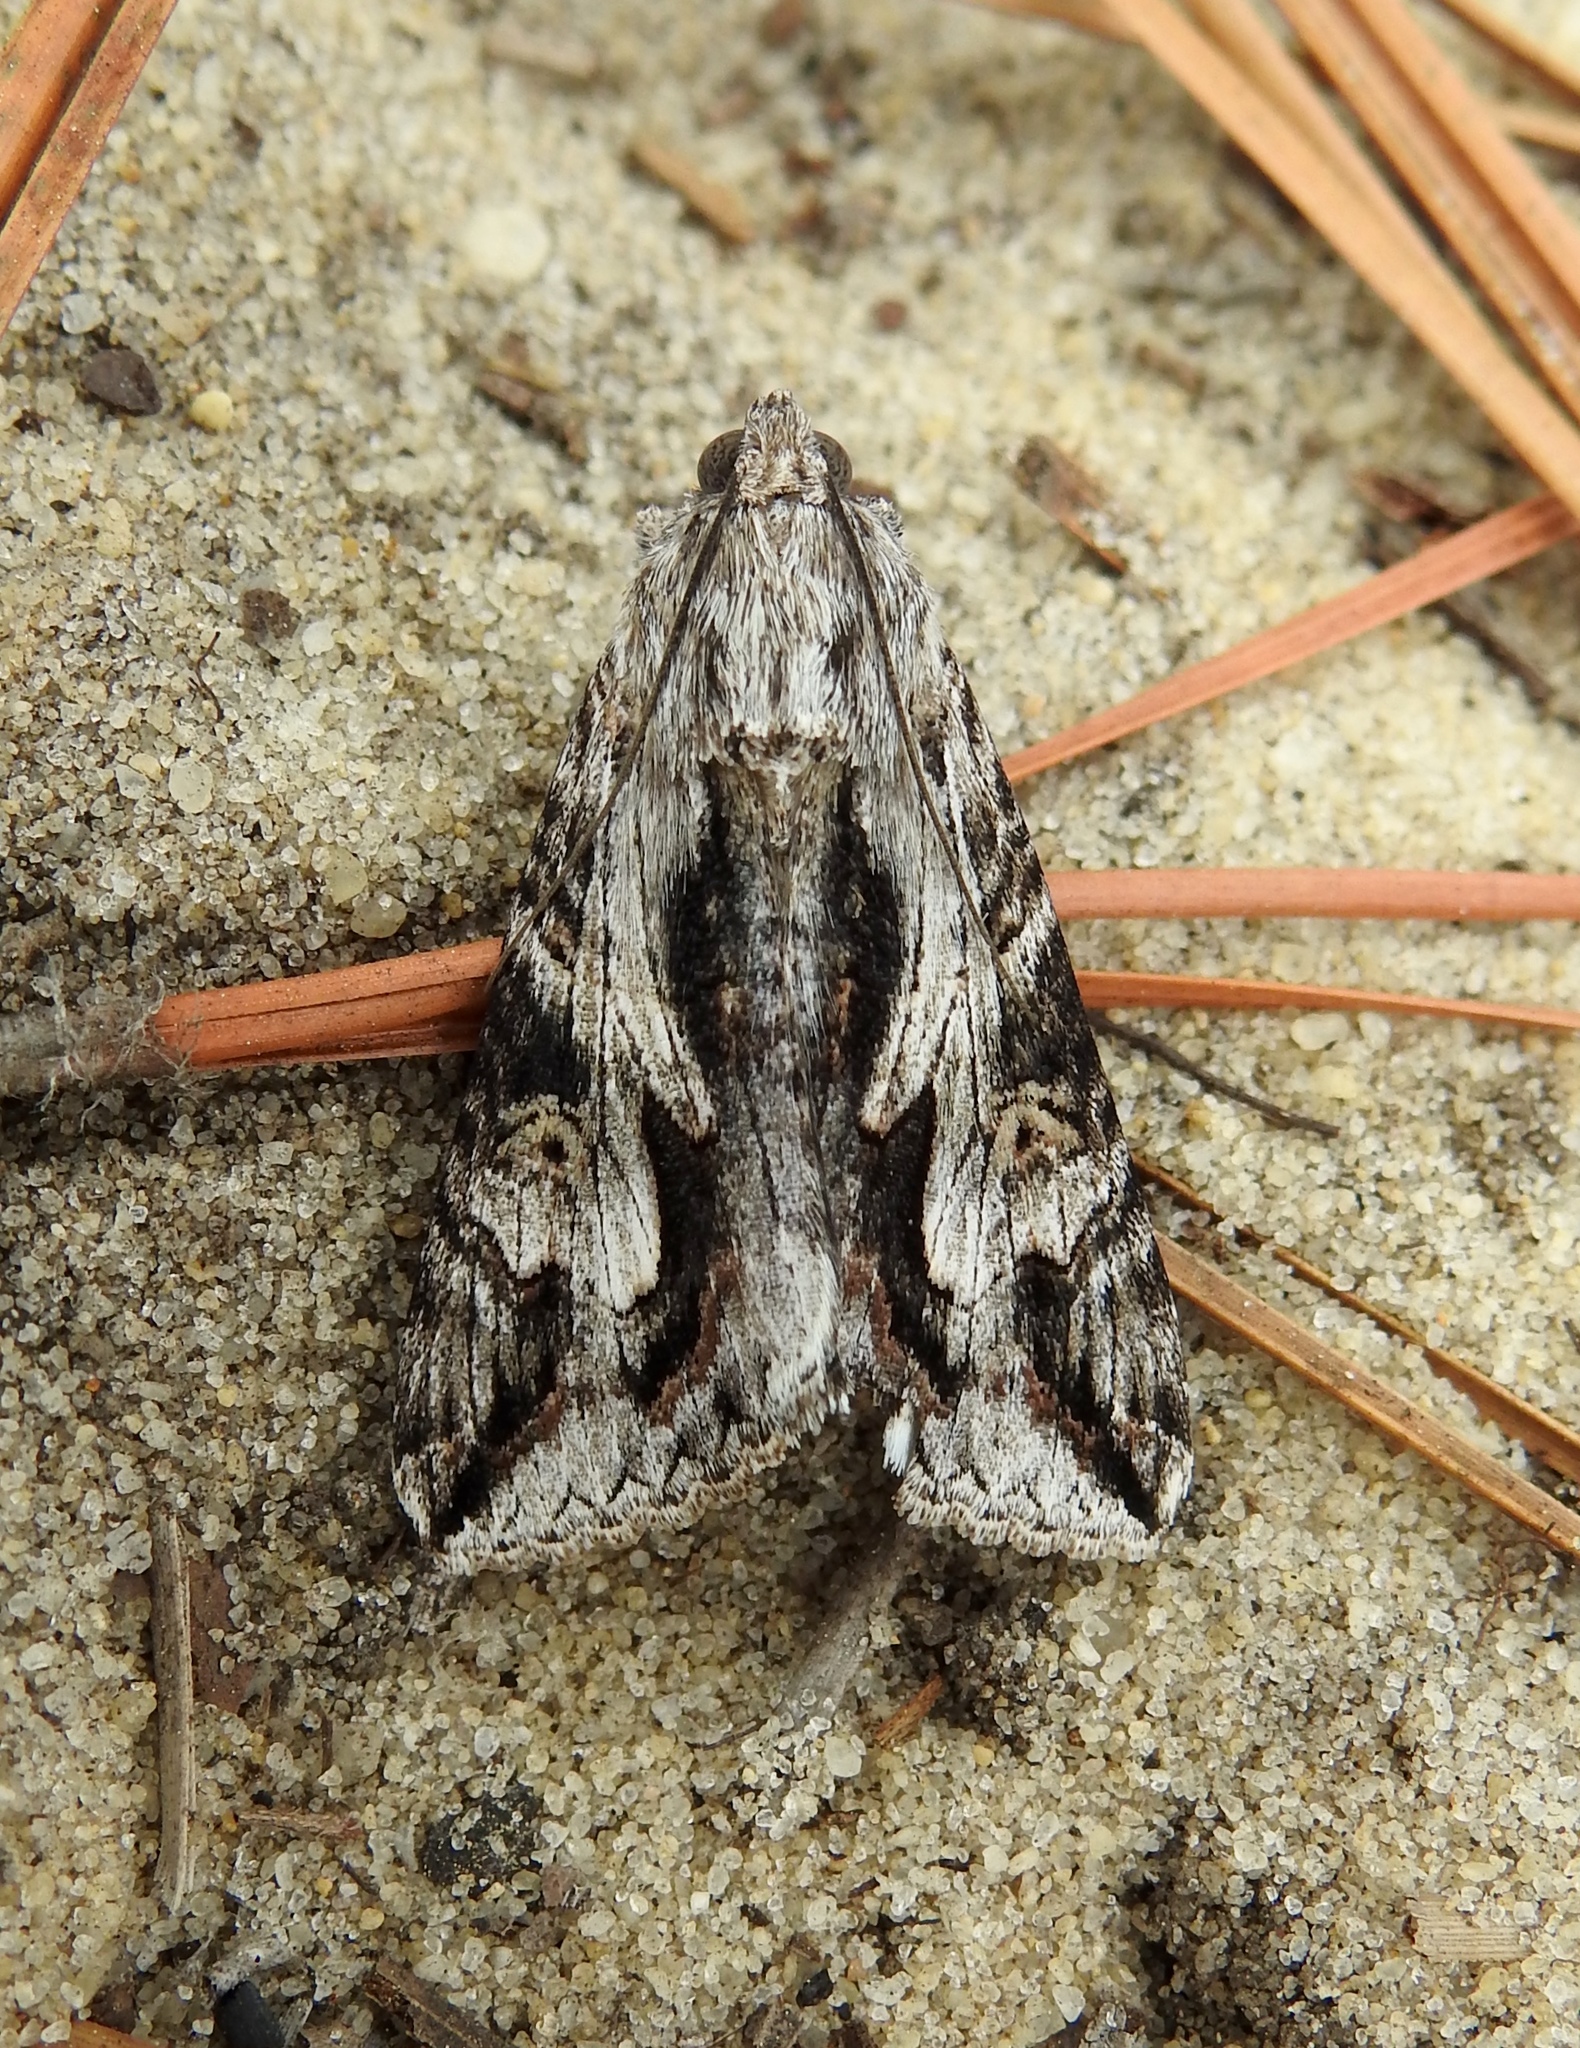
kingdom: Animalia
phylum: Arthropoda
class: Insecta
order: Lepidoptera
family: Erebidae
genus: Melipotis
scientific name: Melipotis jucunda
